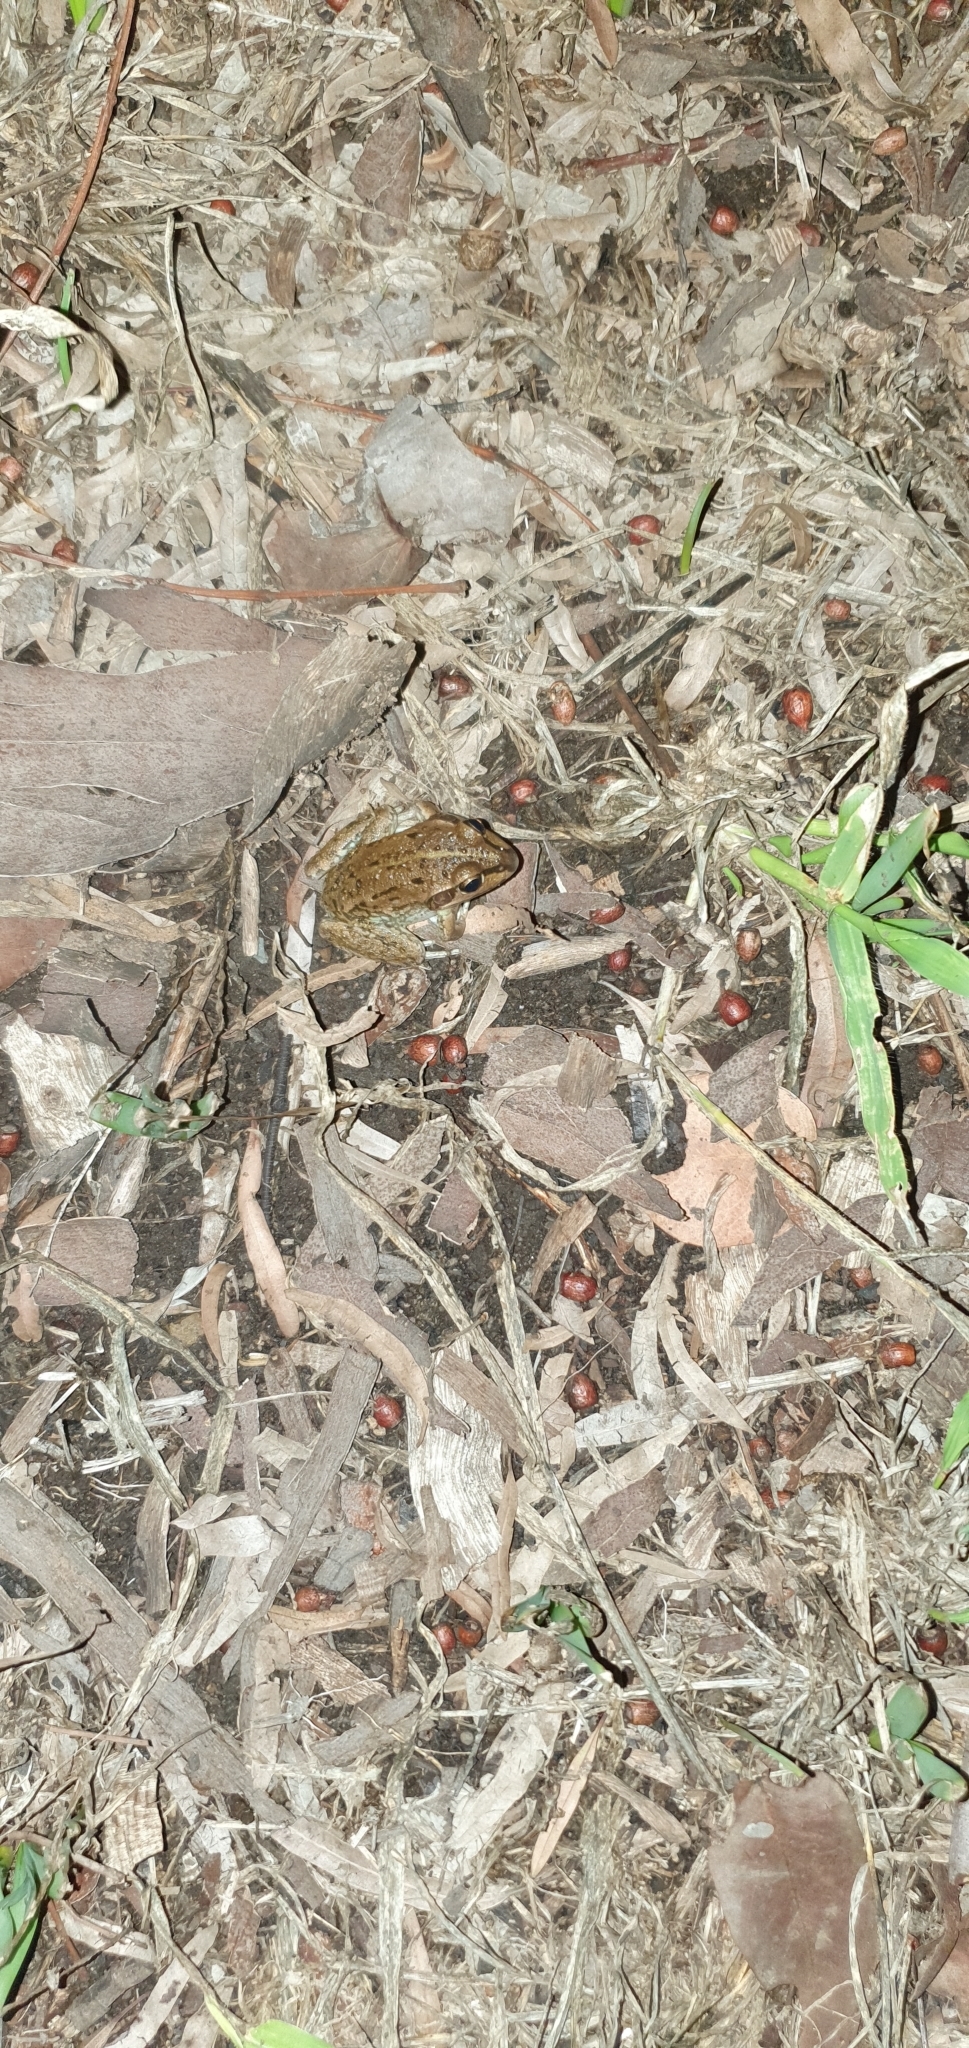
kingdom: Animalia
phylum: Chordata
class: Amphibia
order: Anura
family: Pelodryadidae
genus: Ranoidea
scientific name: Ranoidea alboguttata
